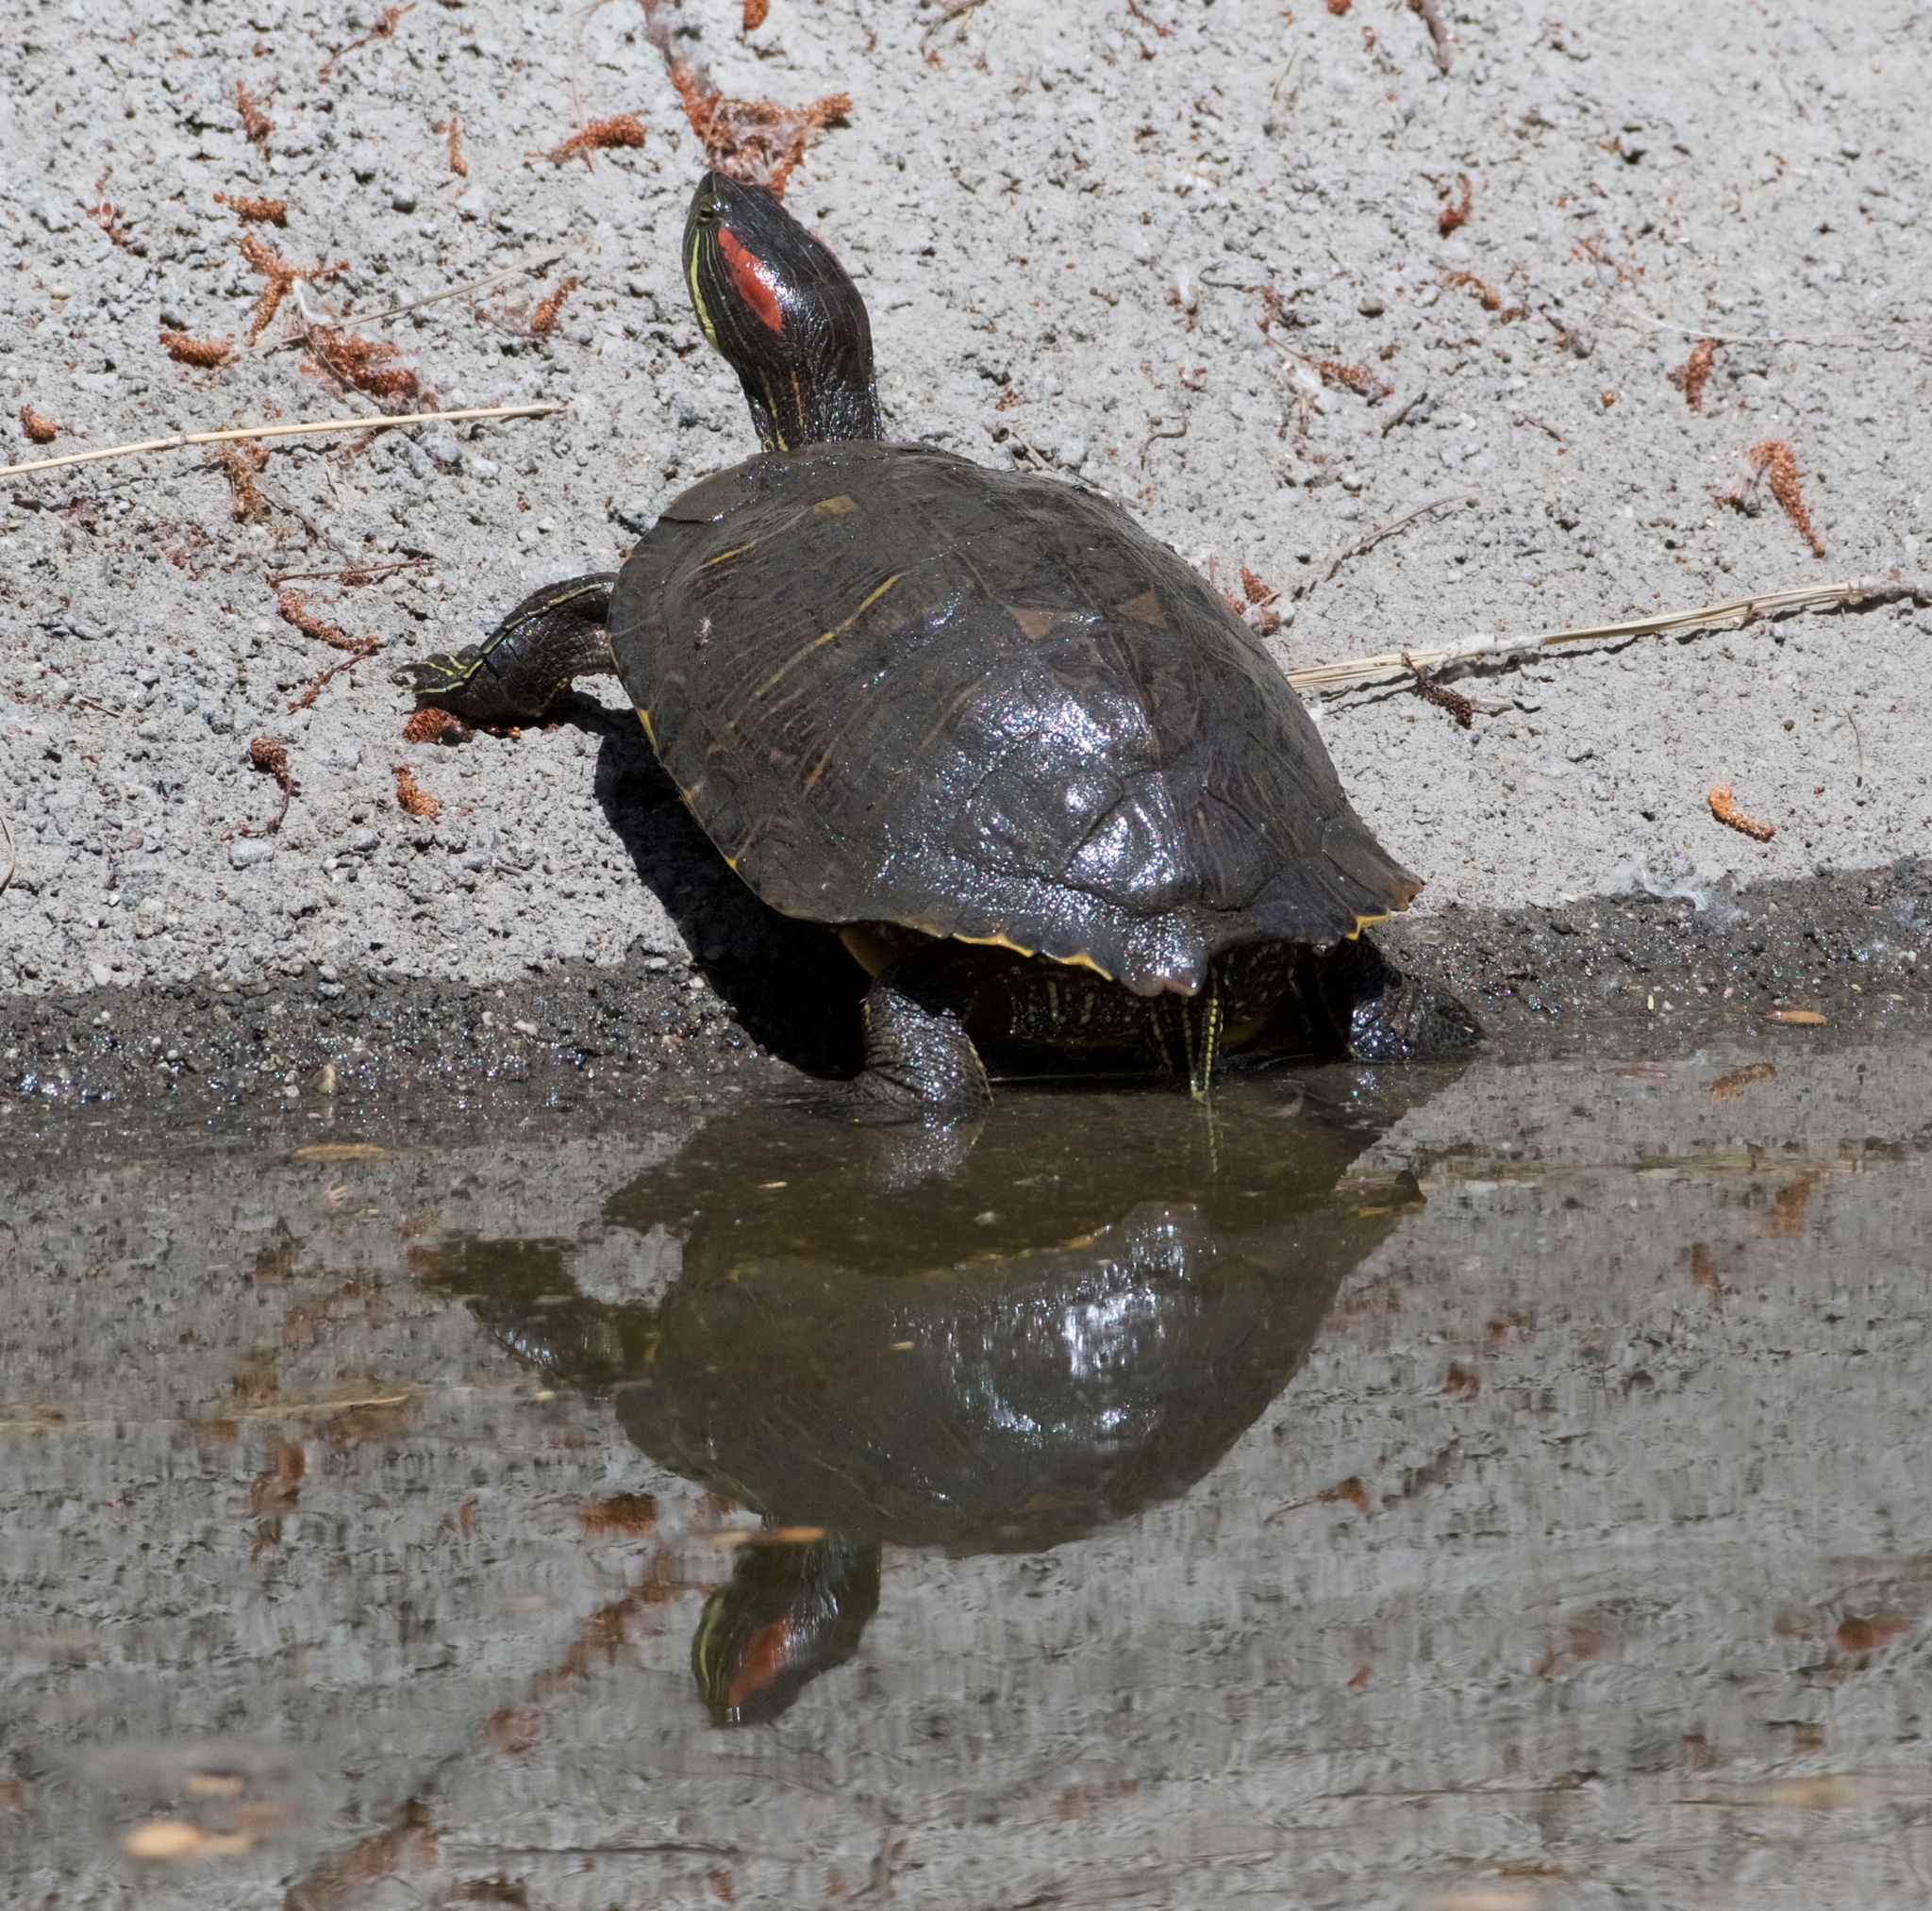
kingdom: Animalia
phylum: Chordata
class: Testudines
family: Emydidae
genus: Trachemys
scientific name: Trachemys scripta
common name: Slider
